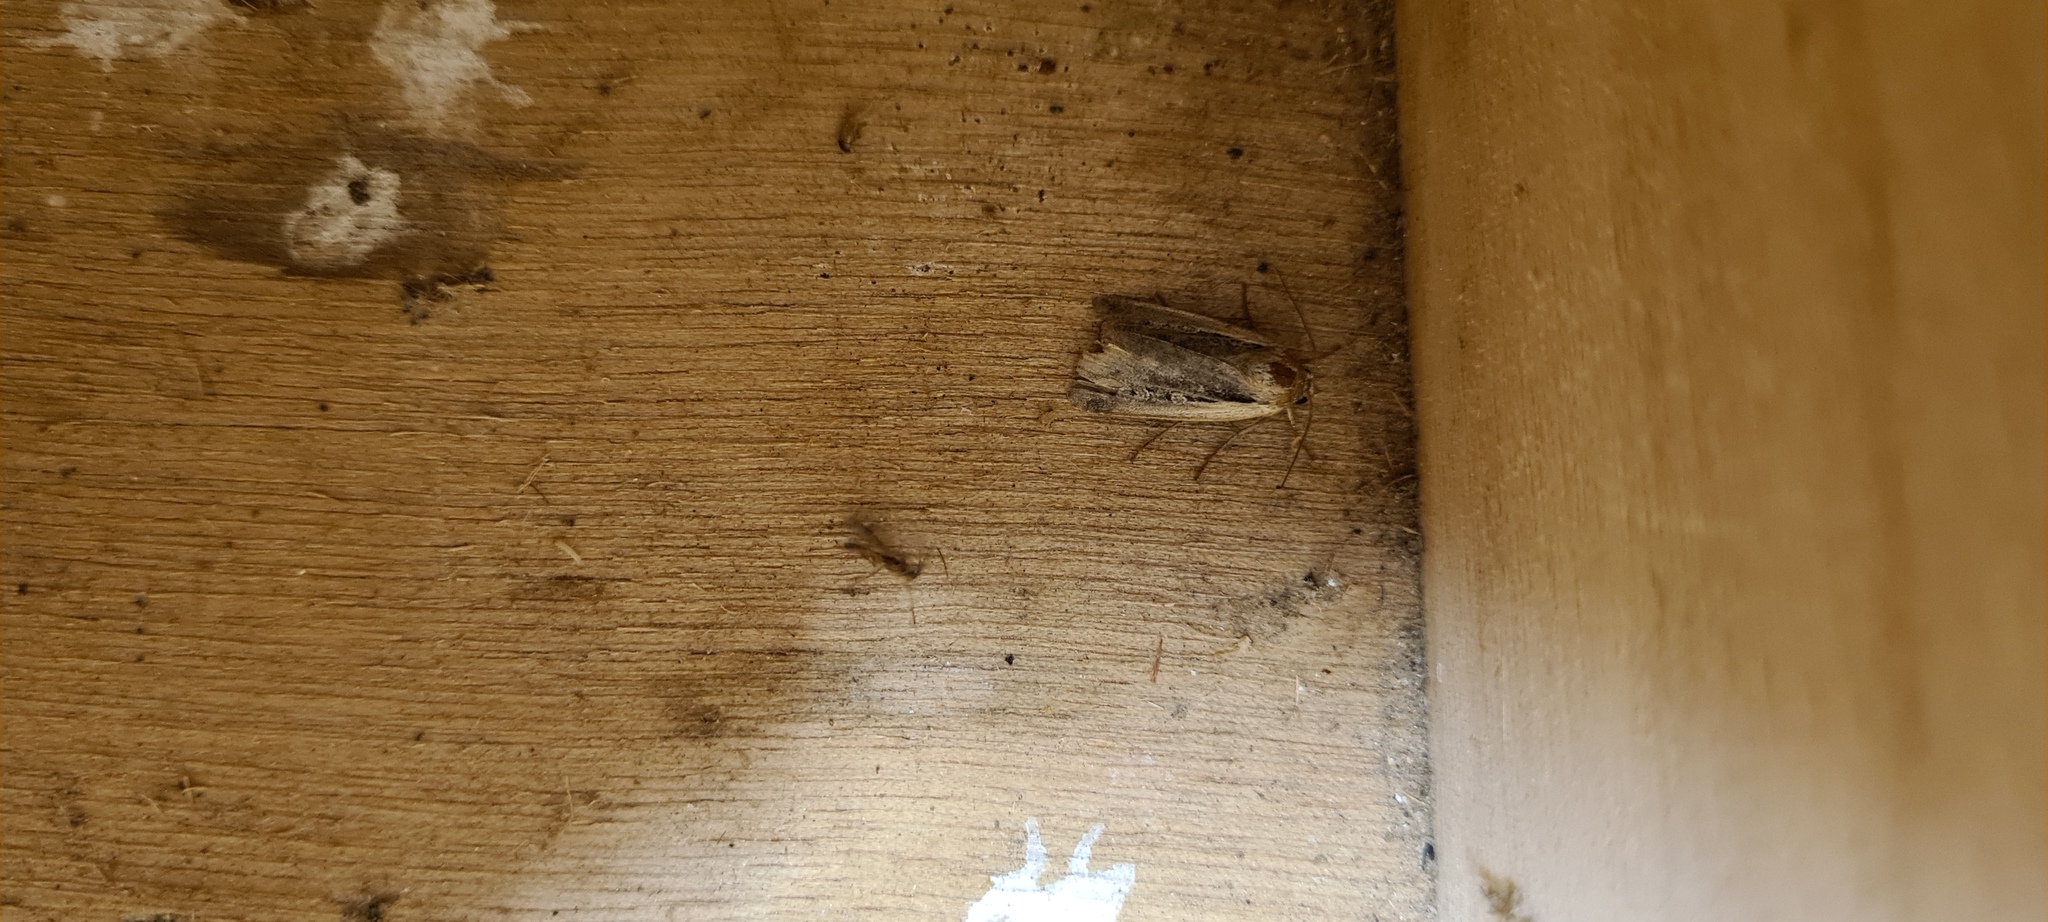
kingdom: Animalia
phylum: Arthropoda
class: Insecta
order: Lepidoptera
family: Noctuidae
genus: Ochropleura
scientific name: Ochropleura plecta
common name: Flame shoulder
